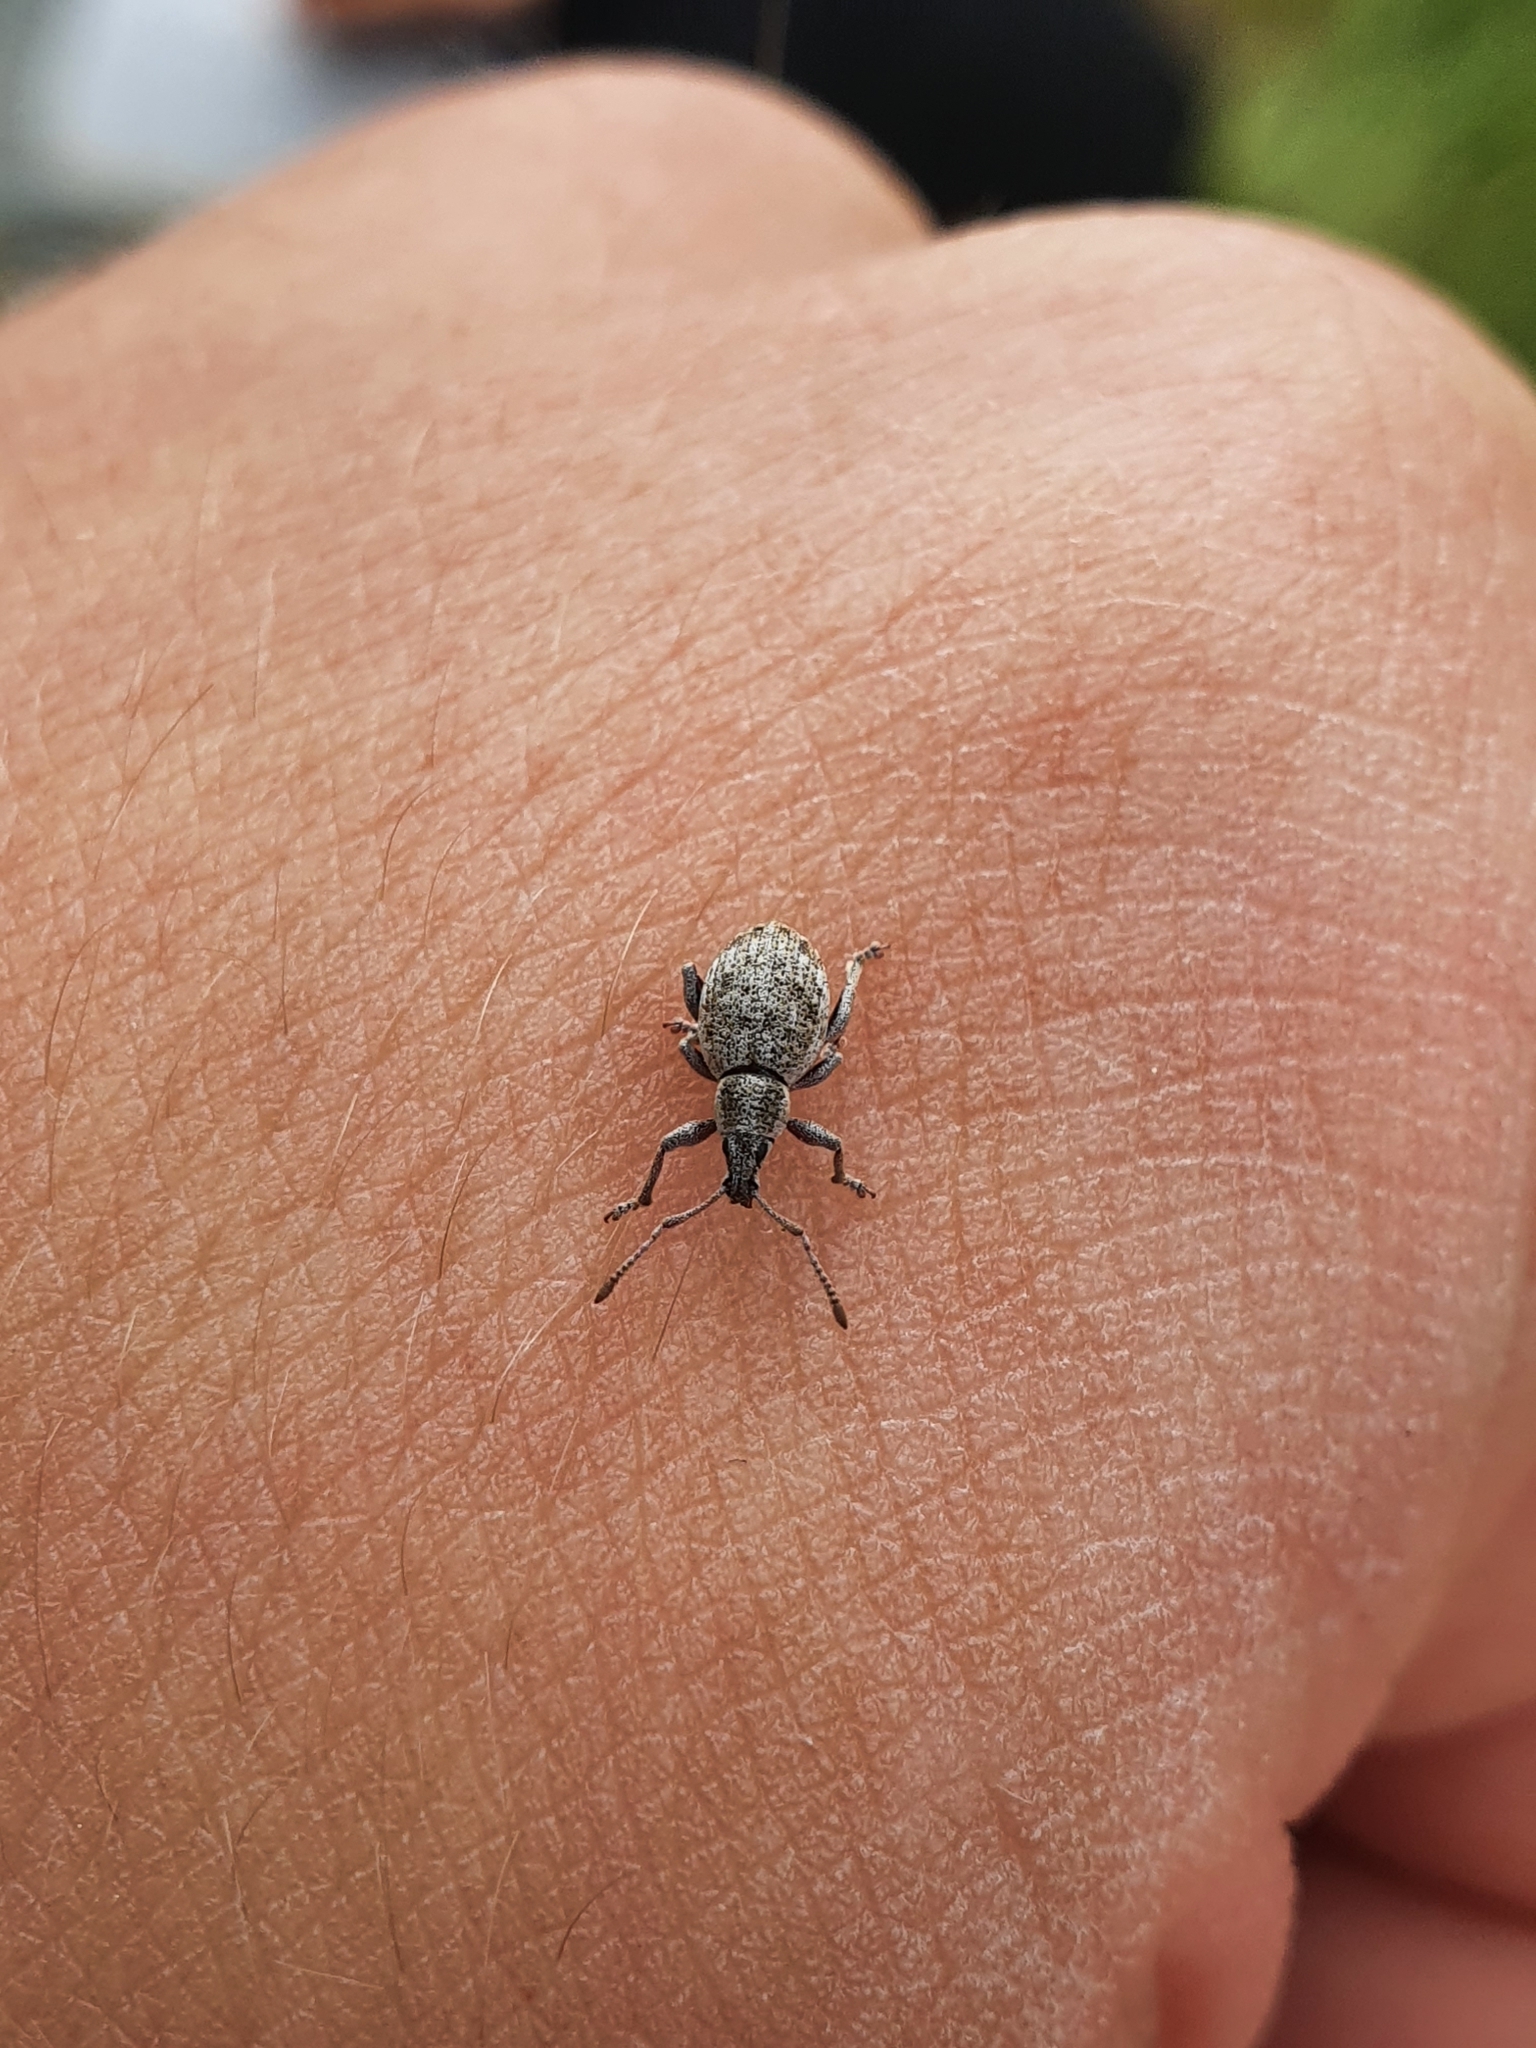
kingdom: Animalia
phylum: Arthropoda
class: Insecta
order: Coleoptera
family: Curculionidae
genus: Peritelus
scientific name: Peritelus sphaeroides
